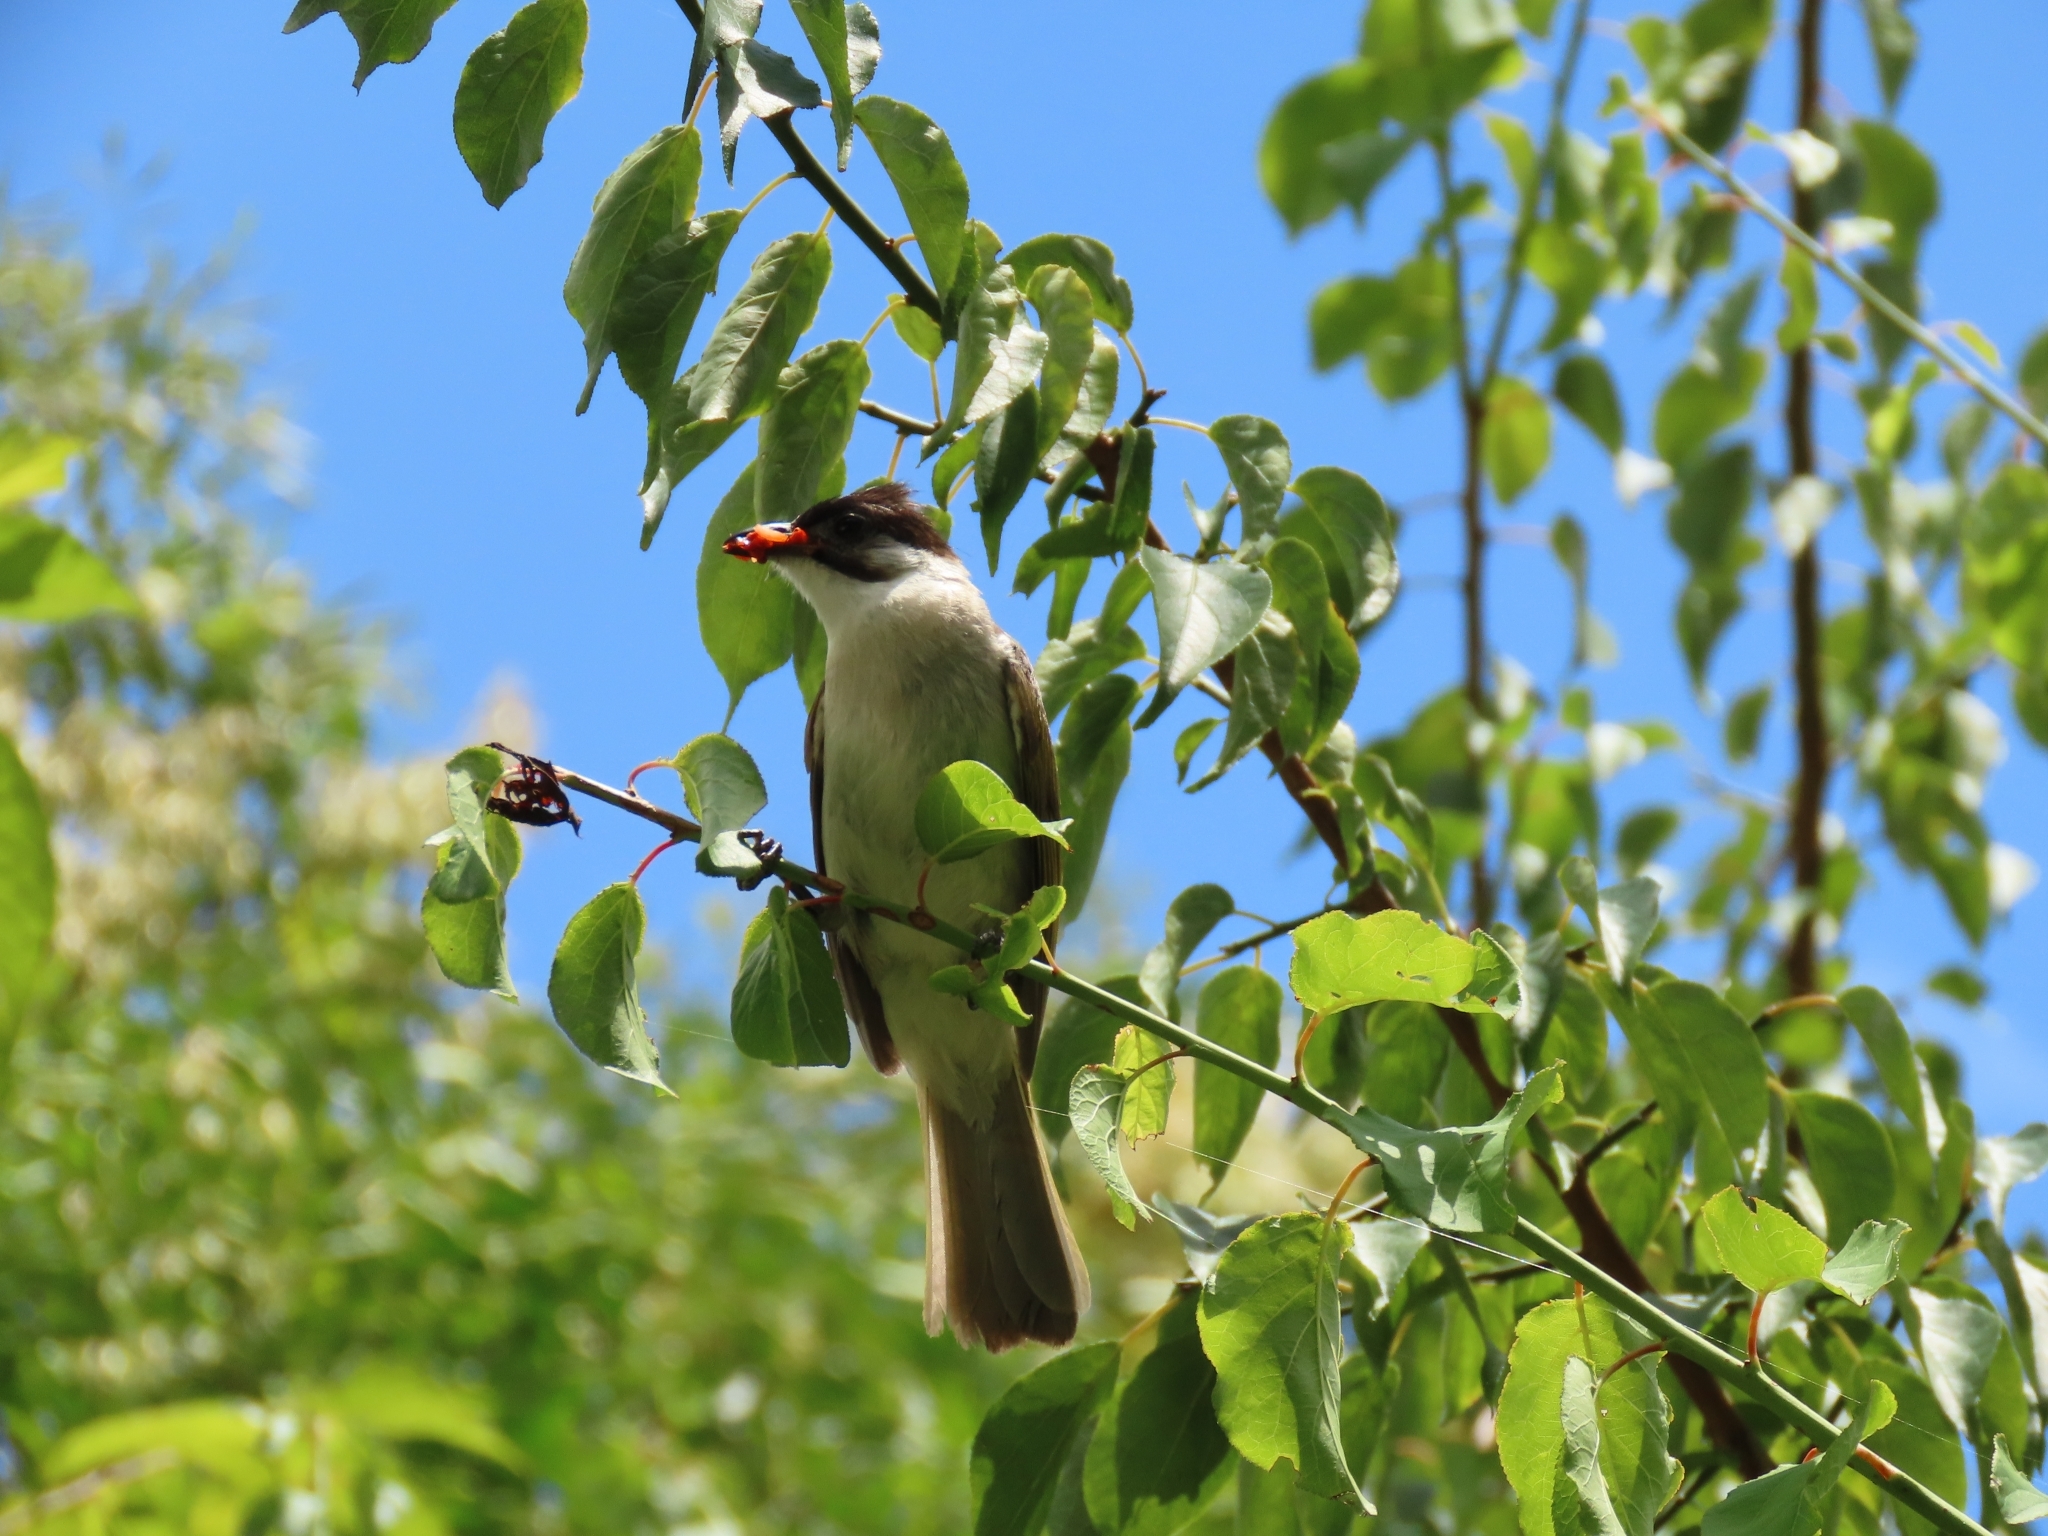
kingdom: Animalia
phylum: Chordata
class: Aves
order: Passeriformes
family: Pycnonotidae
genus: Pycnonotus
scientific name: Pycnonotus taivanus
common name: Styan's bulbul
